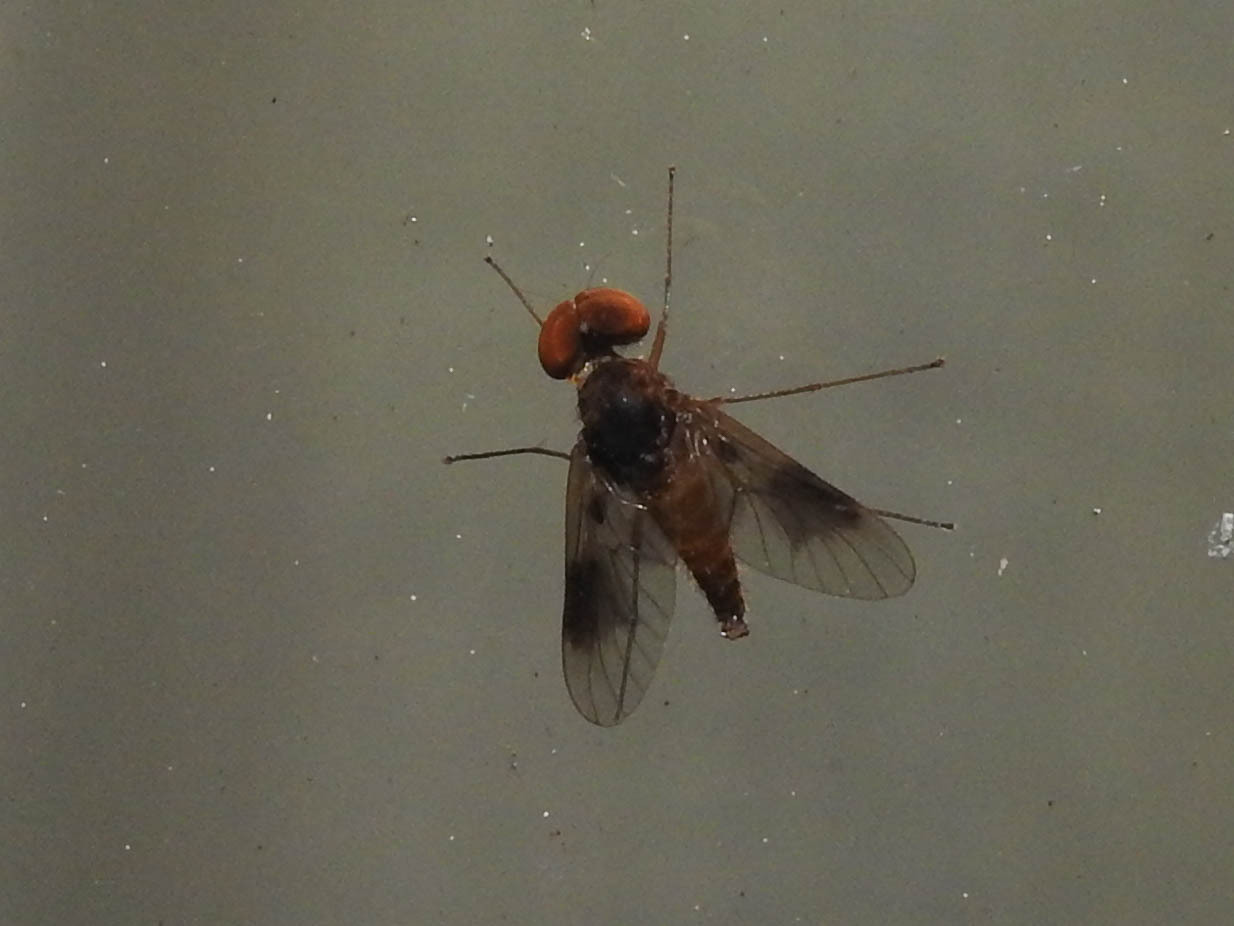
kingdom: Animalia
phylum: Arthropoda
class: Insecta
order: Diptera
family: Rhagionidae
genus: Chrysopilus
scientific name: Chrysopilus quadratus
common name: Quadrate snipe fly
